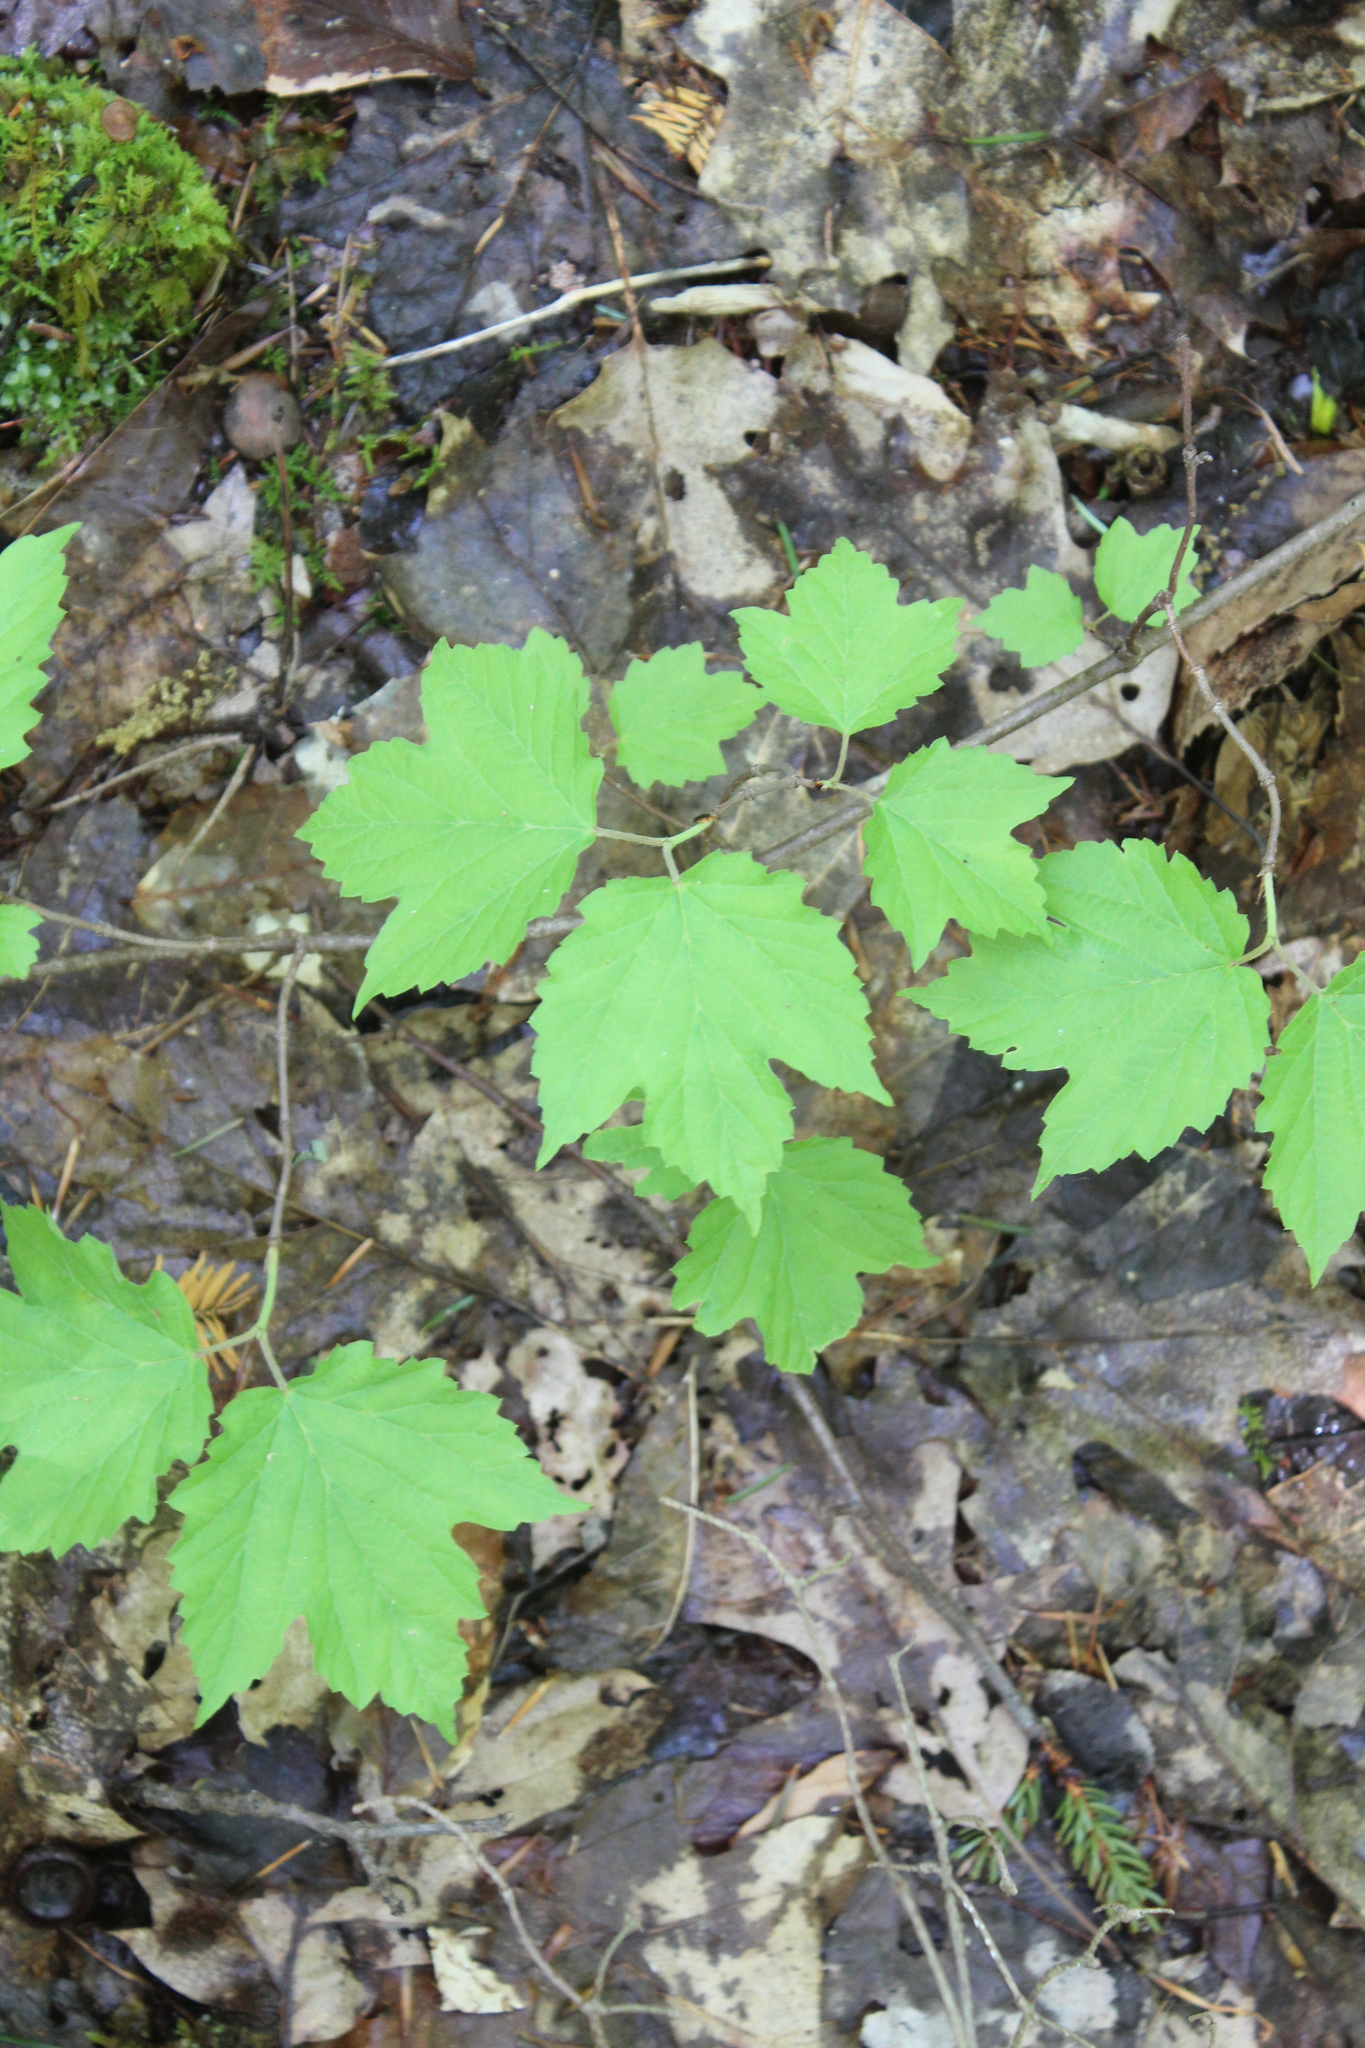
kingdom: Plantae
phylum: Tracheophyta
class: Magnoliopsida
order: Dipsacales
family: Viburnaceae
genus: Viburnum
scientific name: Viburnum acerifolium
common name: Dockmackie
